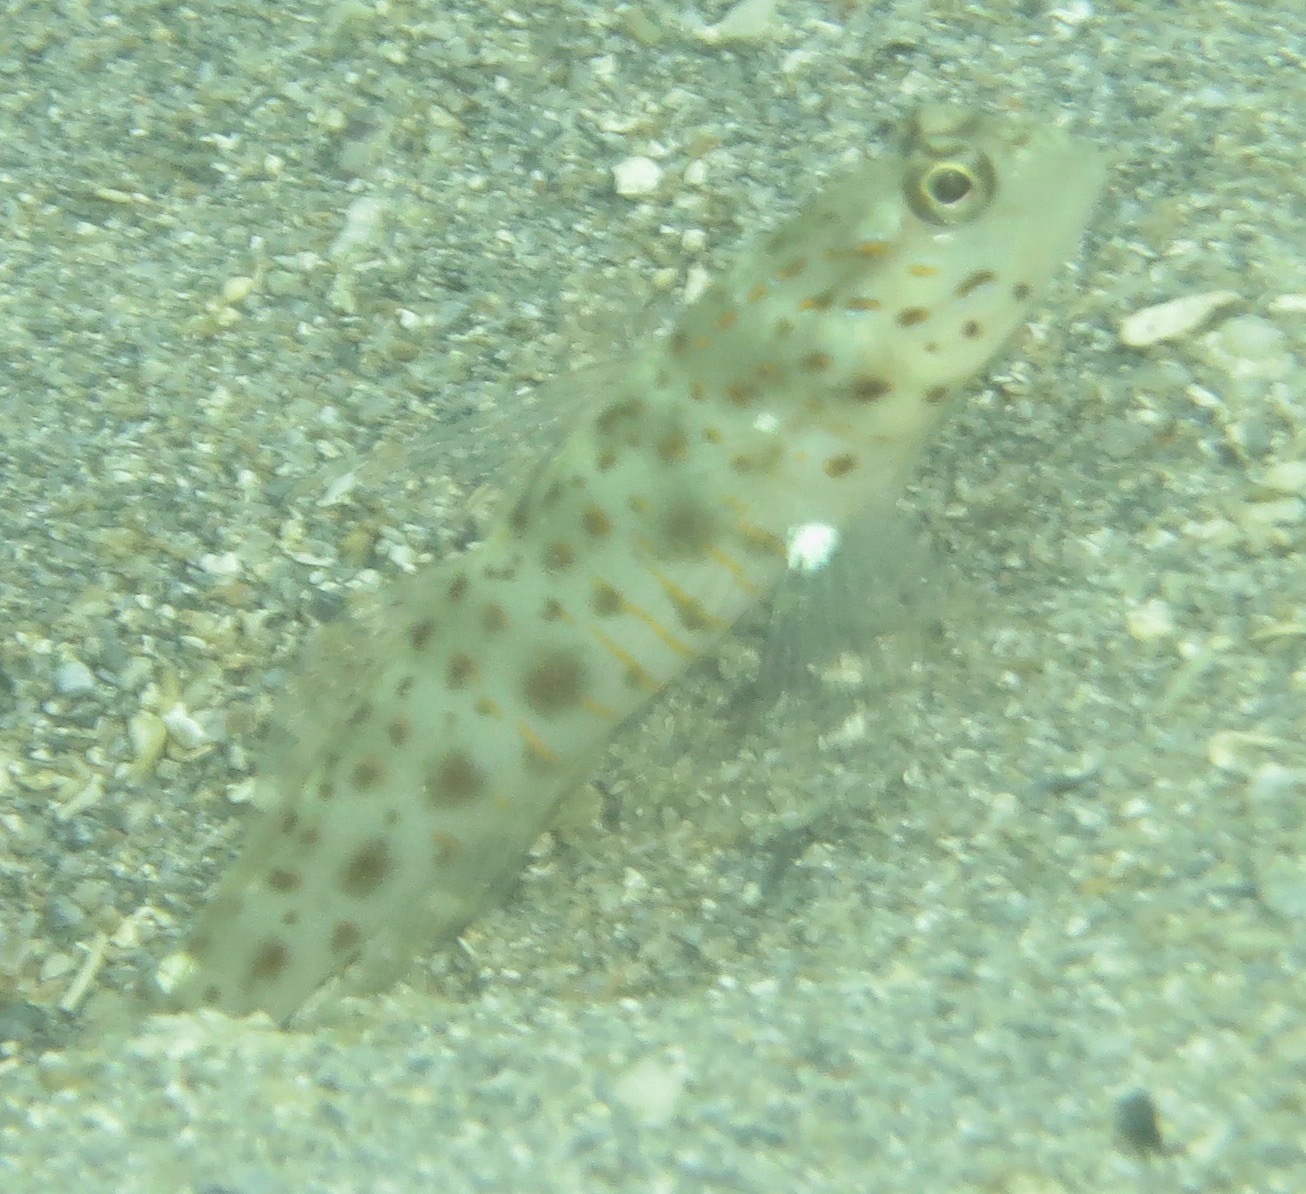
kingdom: Animalia
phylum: Chordata
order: Perciformes
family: Gobiidae
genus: Ctenogobiops
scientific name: Ctenogobiops aurocingulus
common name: Gold-streaked prawn-goby
